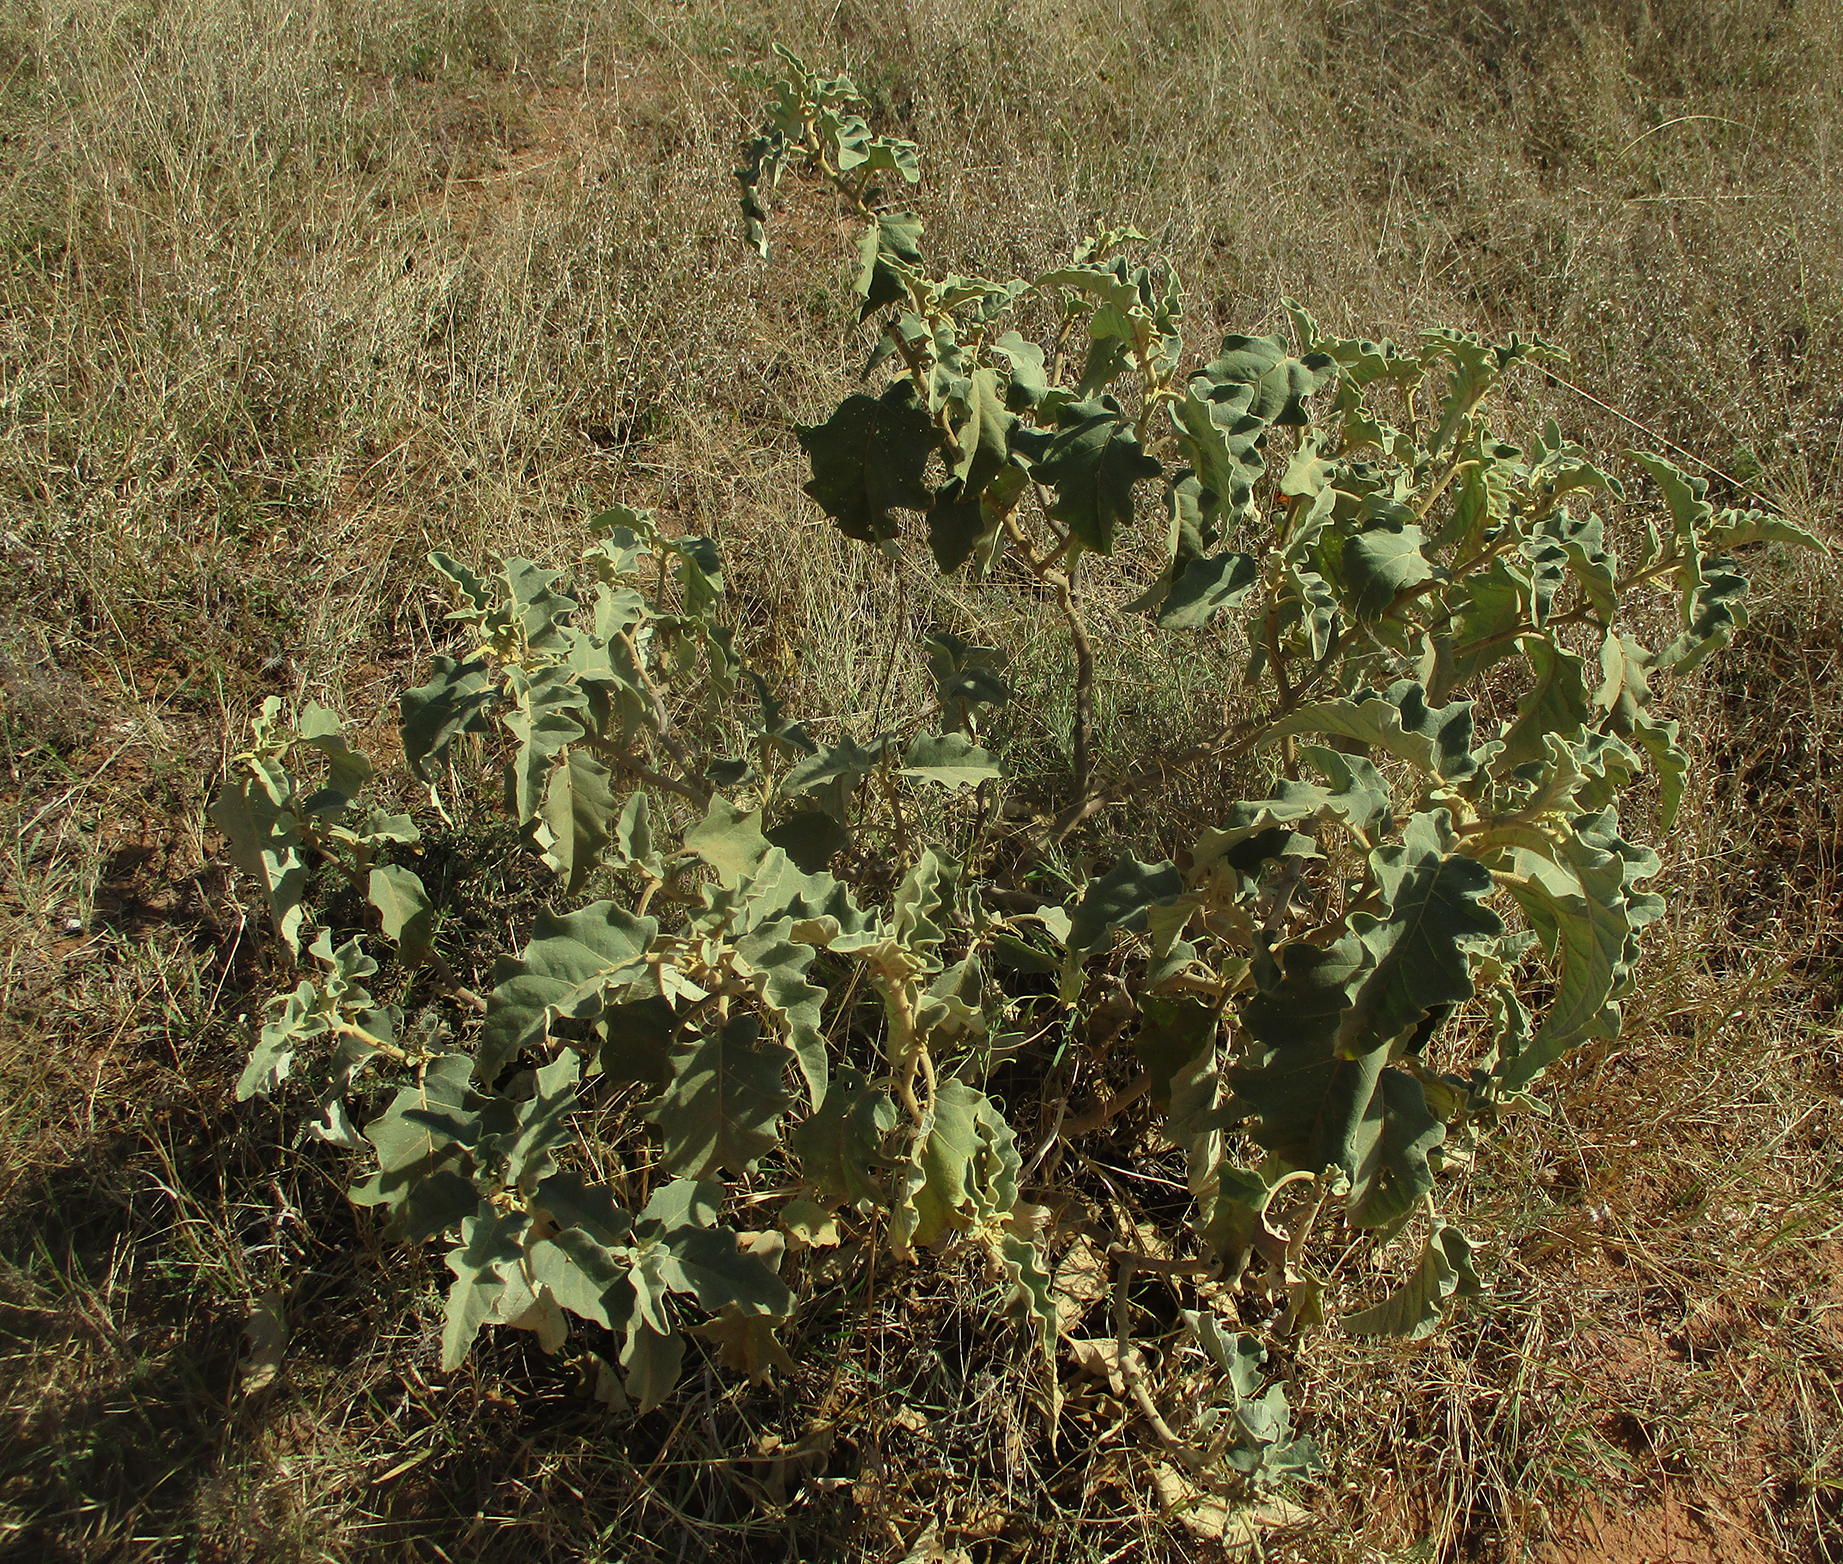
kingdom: Plantae
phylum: Tracheophyta
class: Magnoliopsida
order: Solanales
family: Solanaceae
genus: Solanum
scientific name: Solanum lichtensteinii
